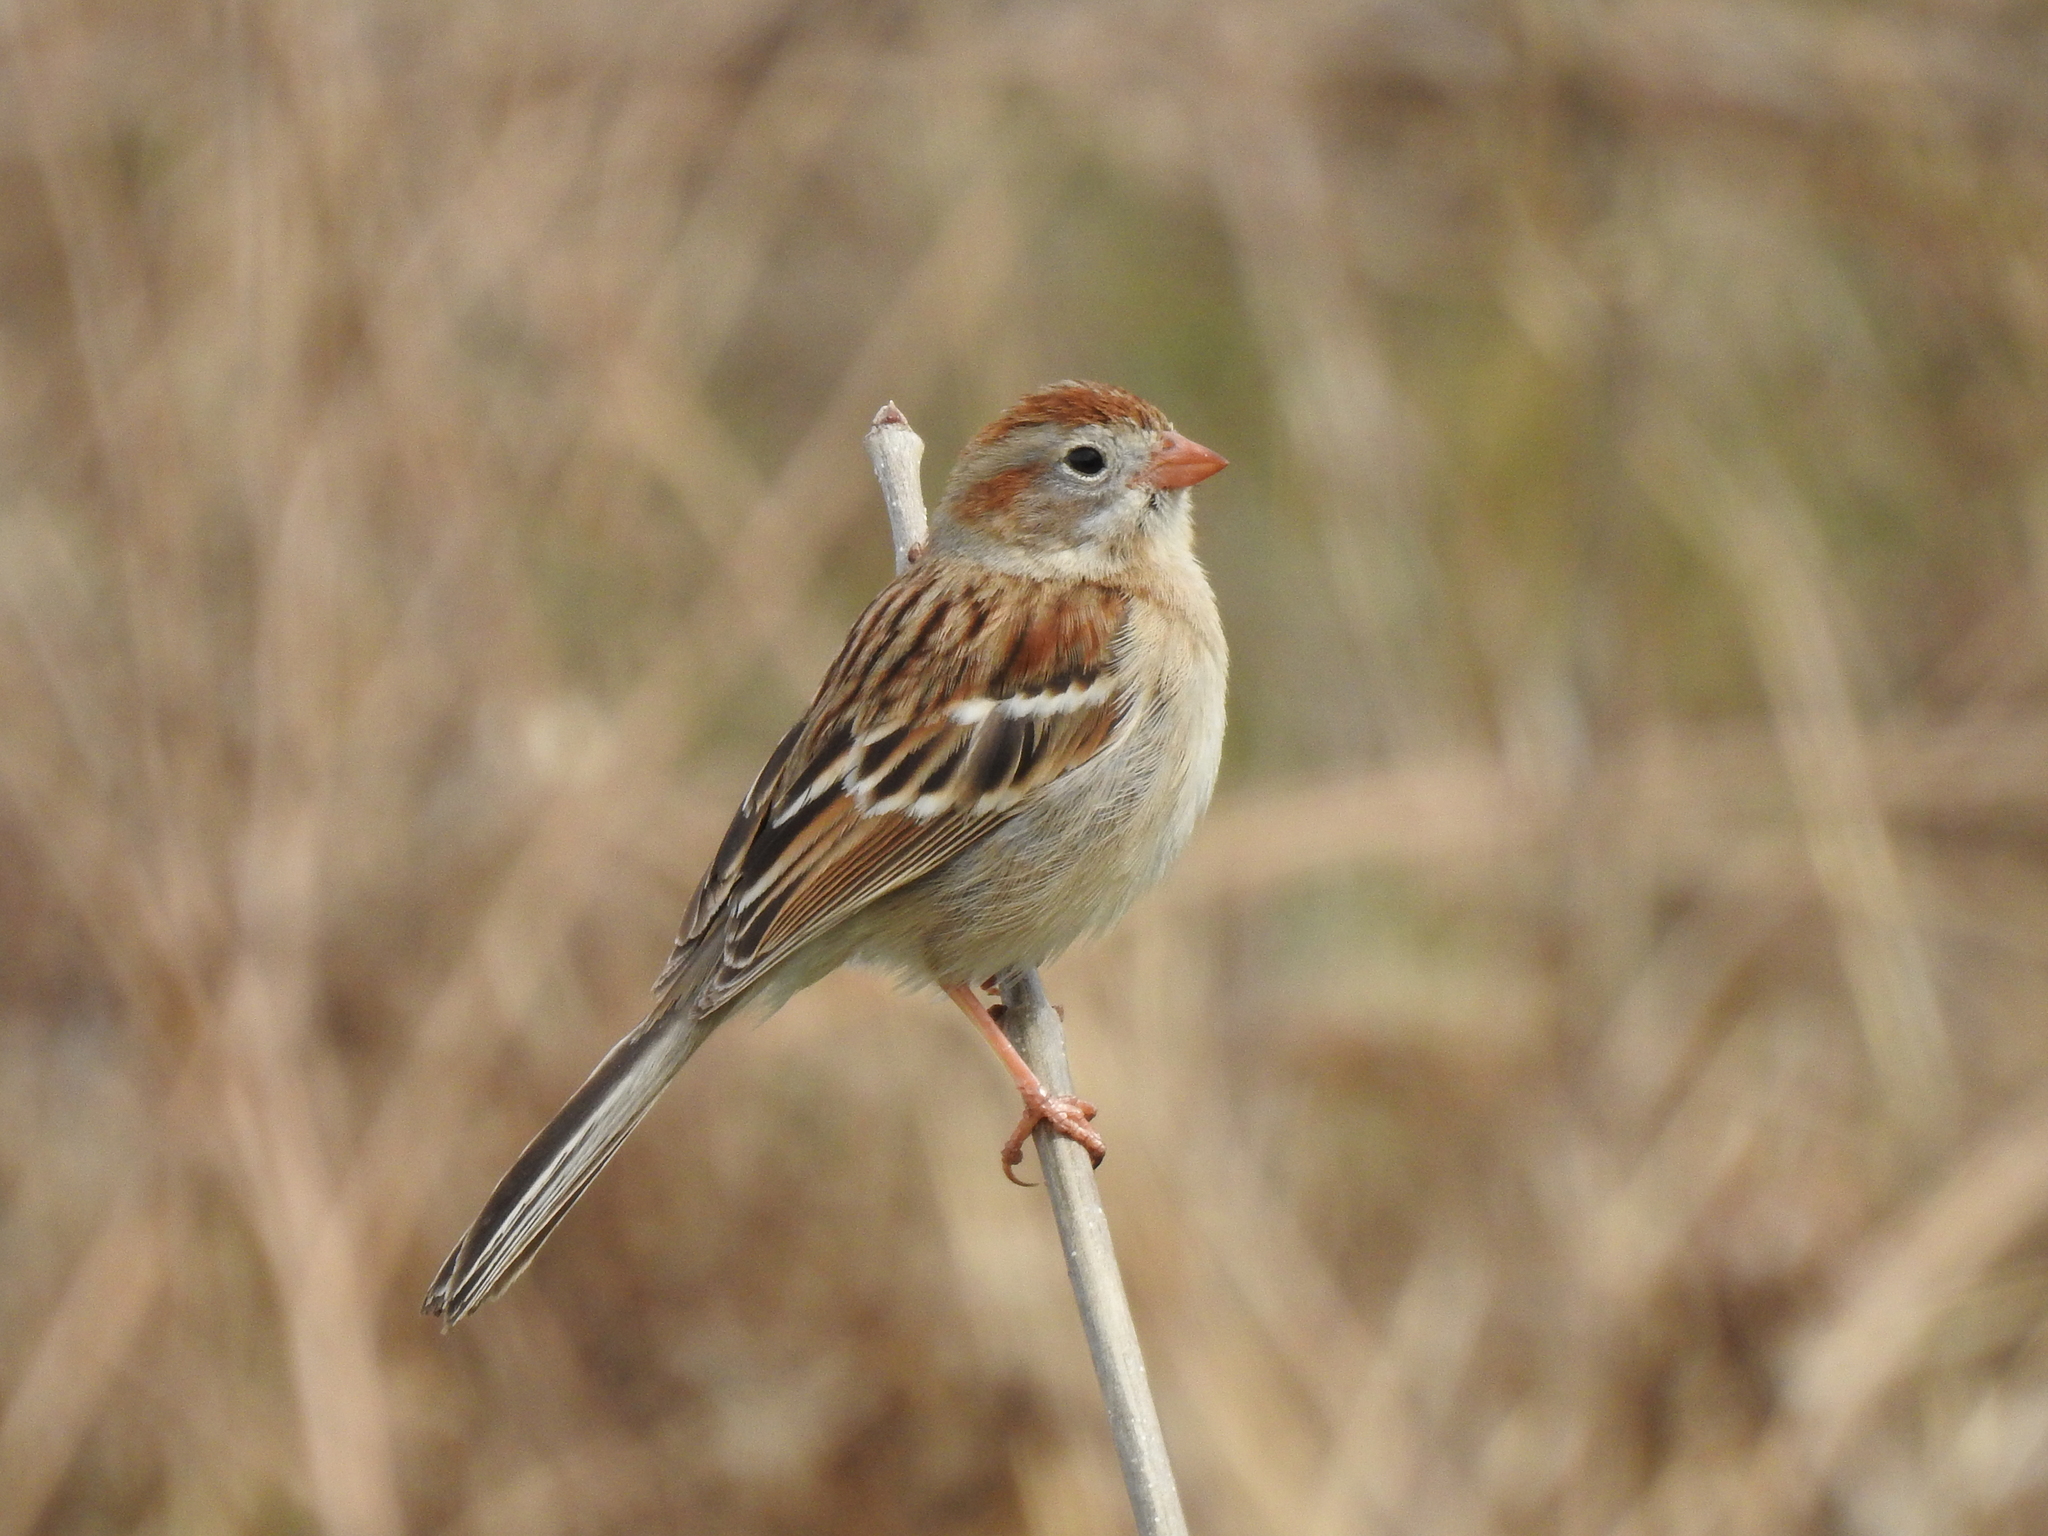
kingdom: Animalia
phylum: Chordata
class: Aves
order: Passeriformes
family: Passerellidae
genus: Spizella
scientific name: Spizella pusilla
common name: Field sparrow
